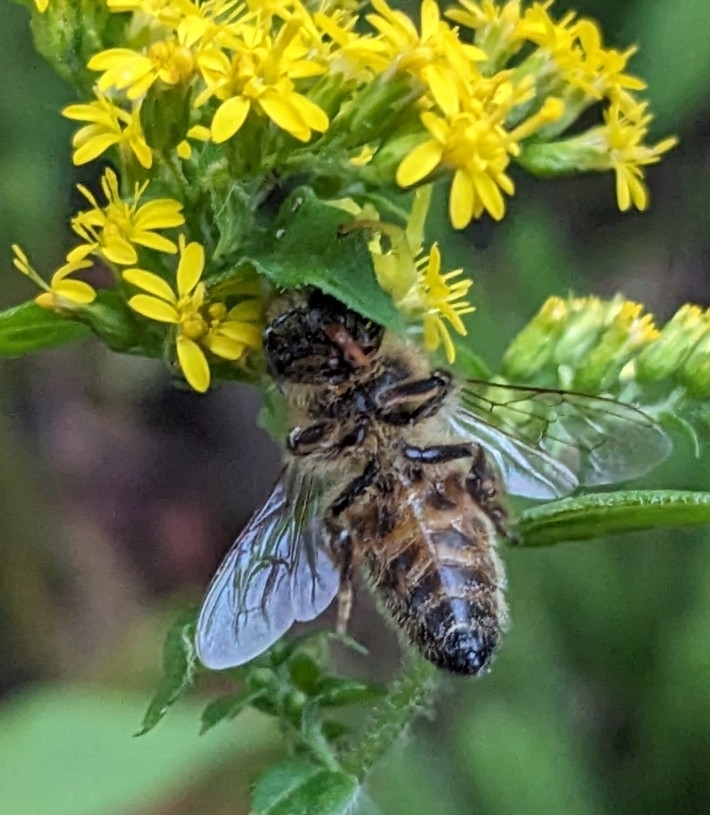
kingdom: Animalia
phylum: Arthropoda
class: Insecta
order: Hymenoptera
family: Apidae
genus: Apis
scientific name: Apis mellifera
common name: Honey bee
